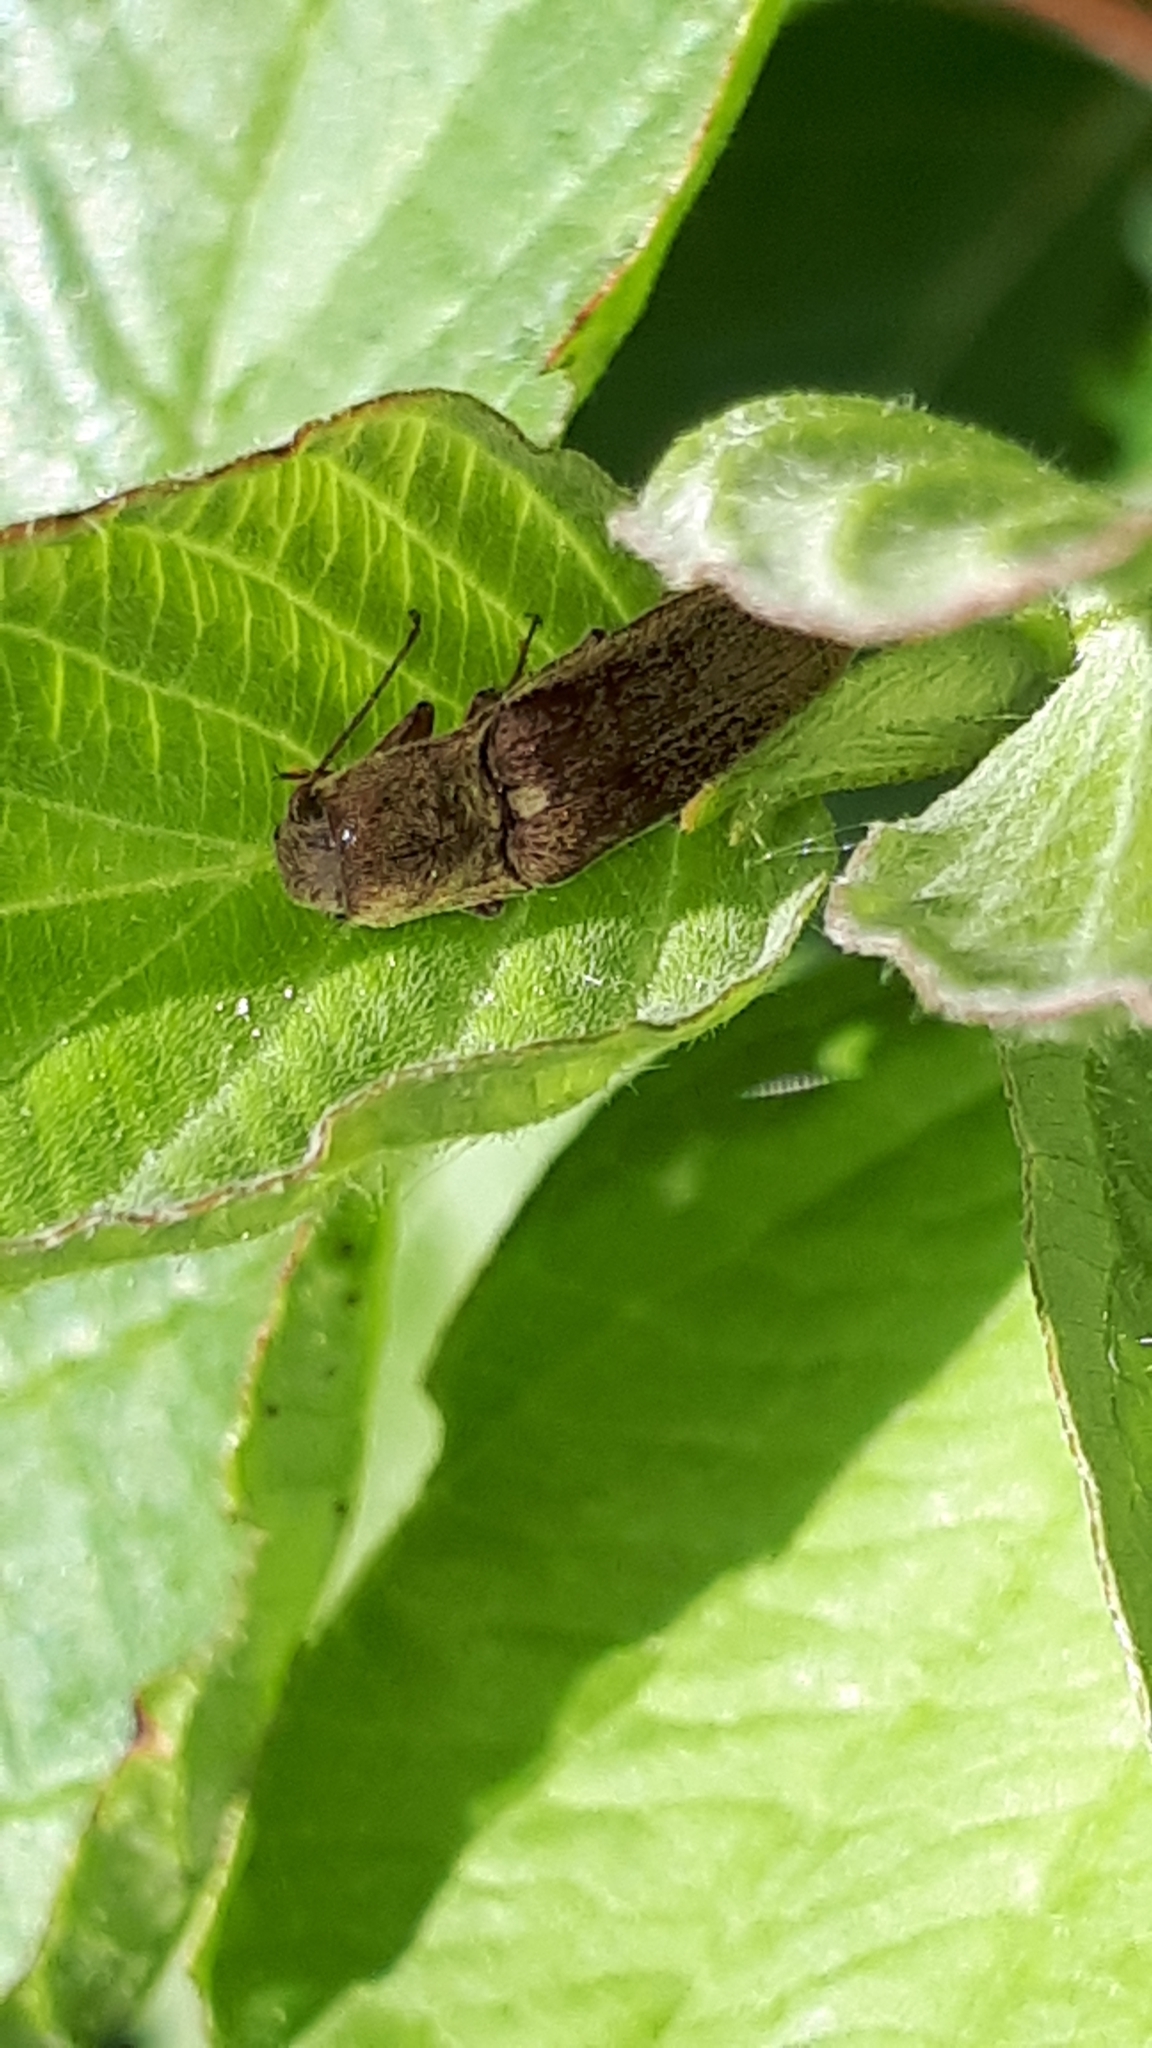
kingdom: Animalia
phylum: Arthropoda
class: Insecta
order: Coleoptera
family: Elateridae
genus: Synaptus
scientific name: Synaptus filiformis
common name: Hairy click beetle
